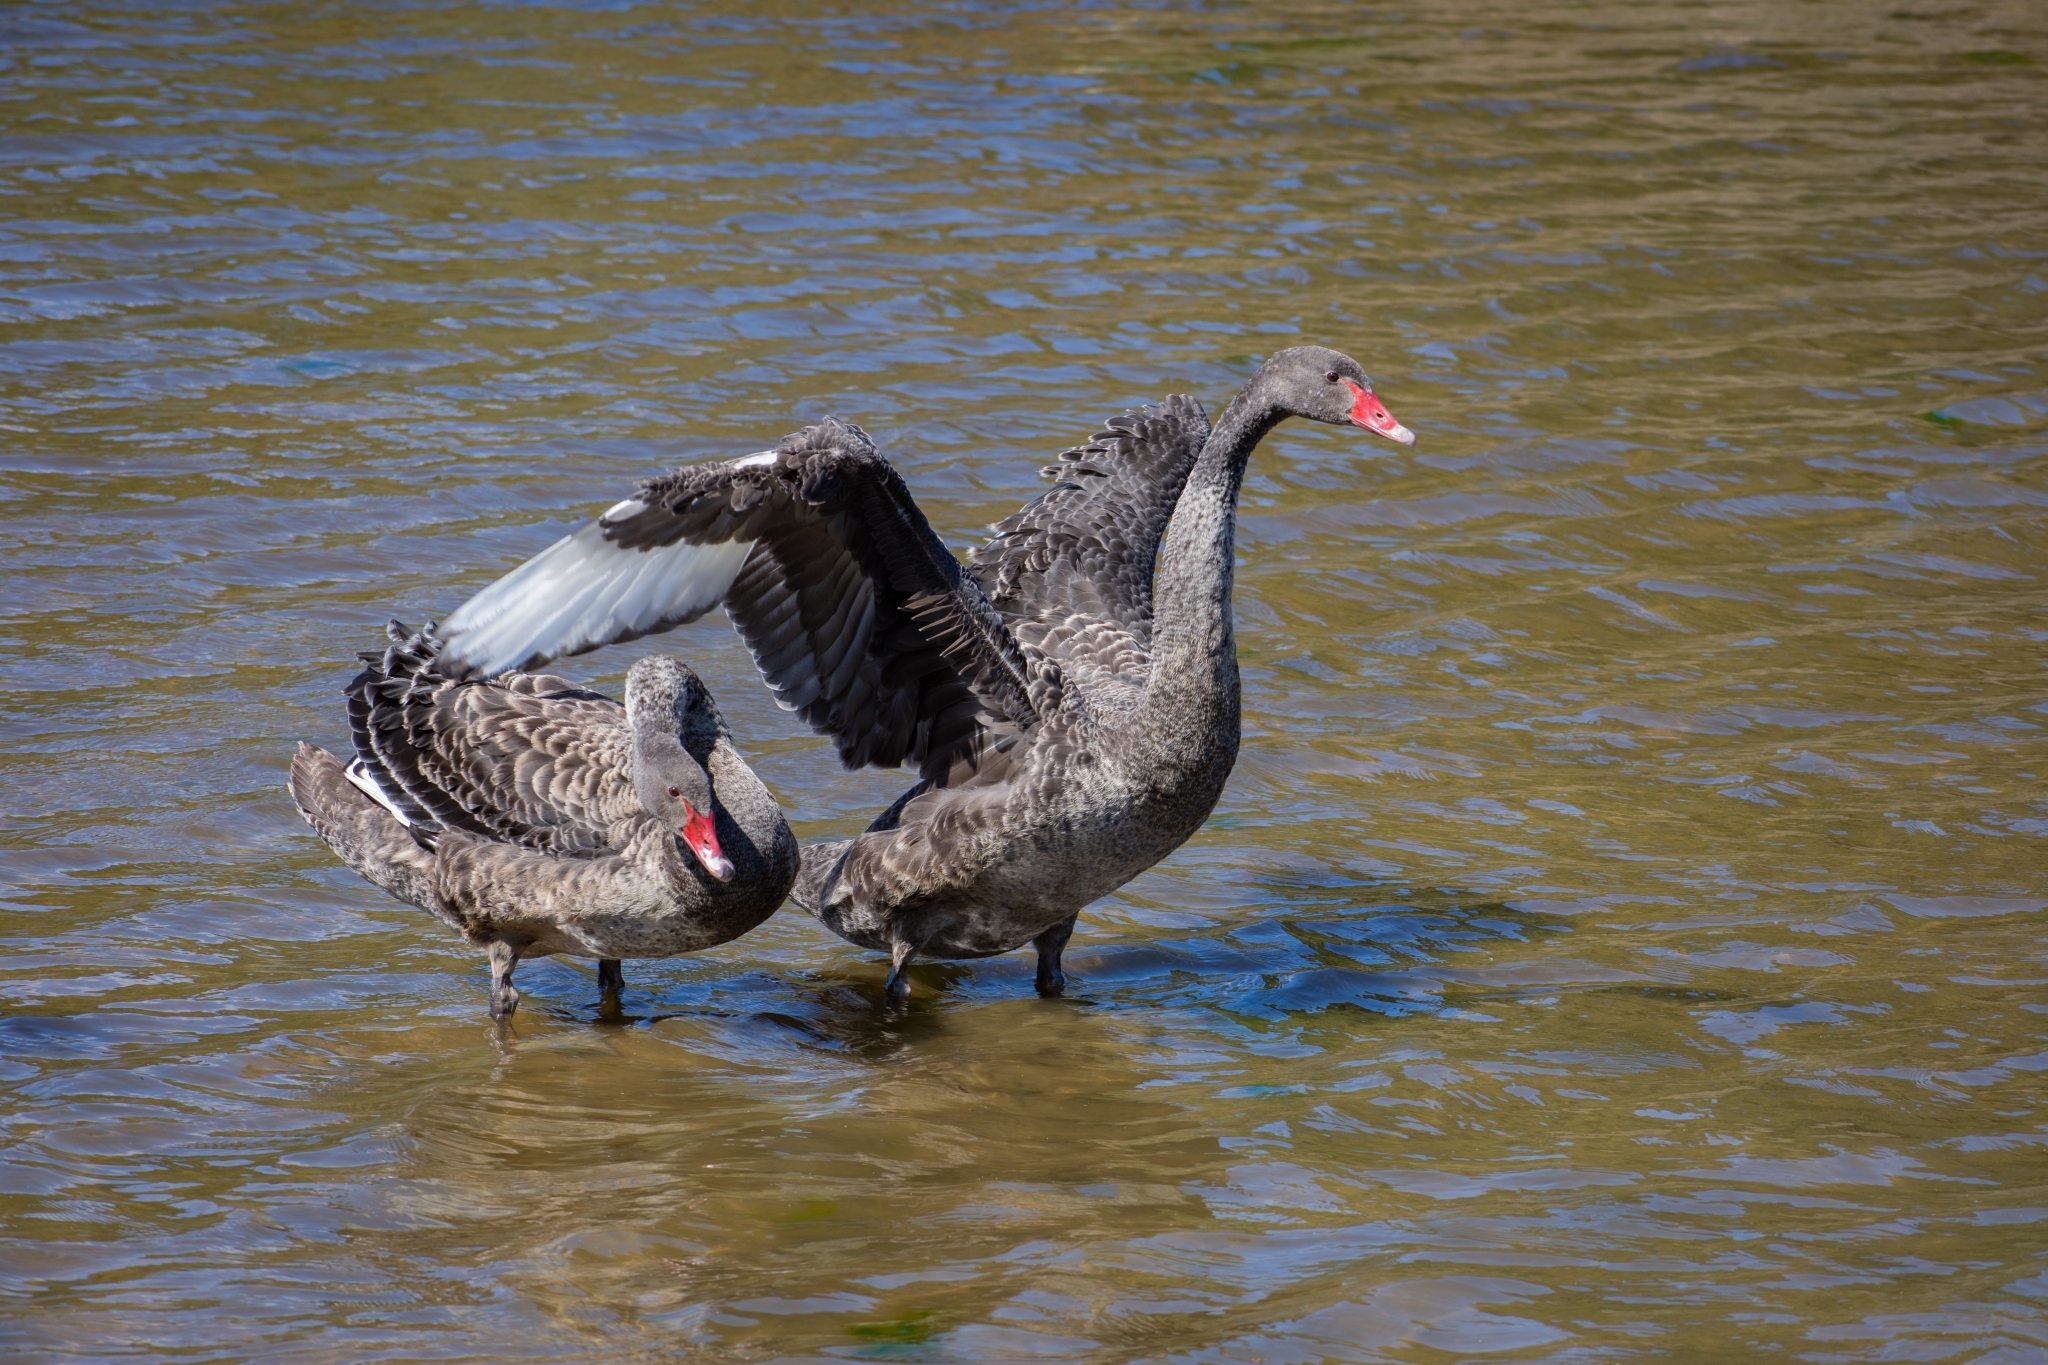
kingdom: Animalia
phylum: Chordata
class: Aves
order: Anseriformes
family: Anatidae
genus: Cygnus
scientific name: Cygnus atratus
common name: Black swan
